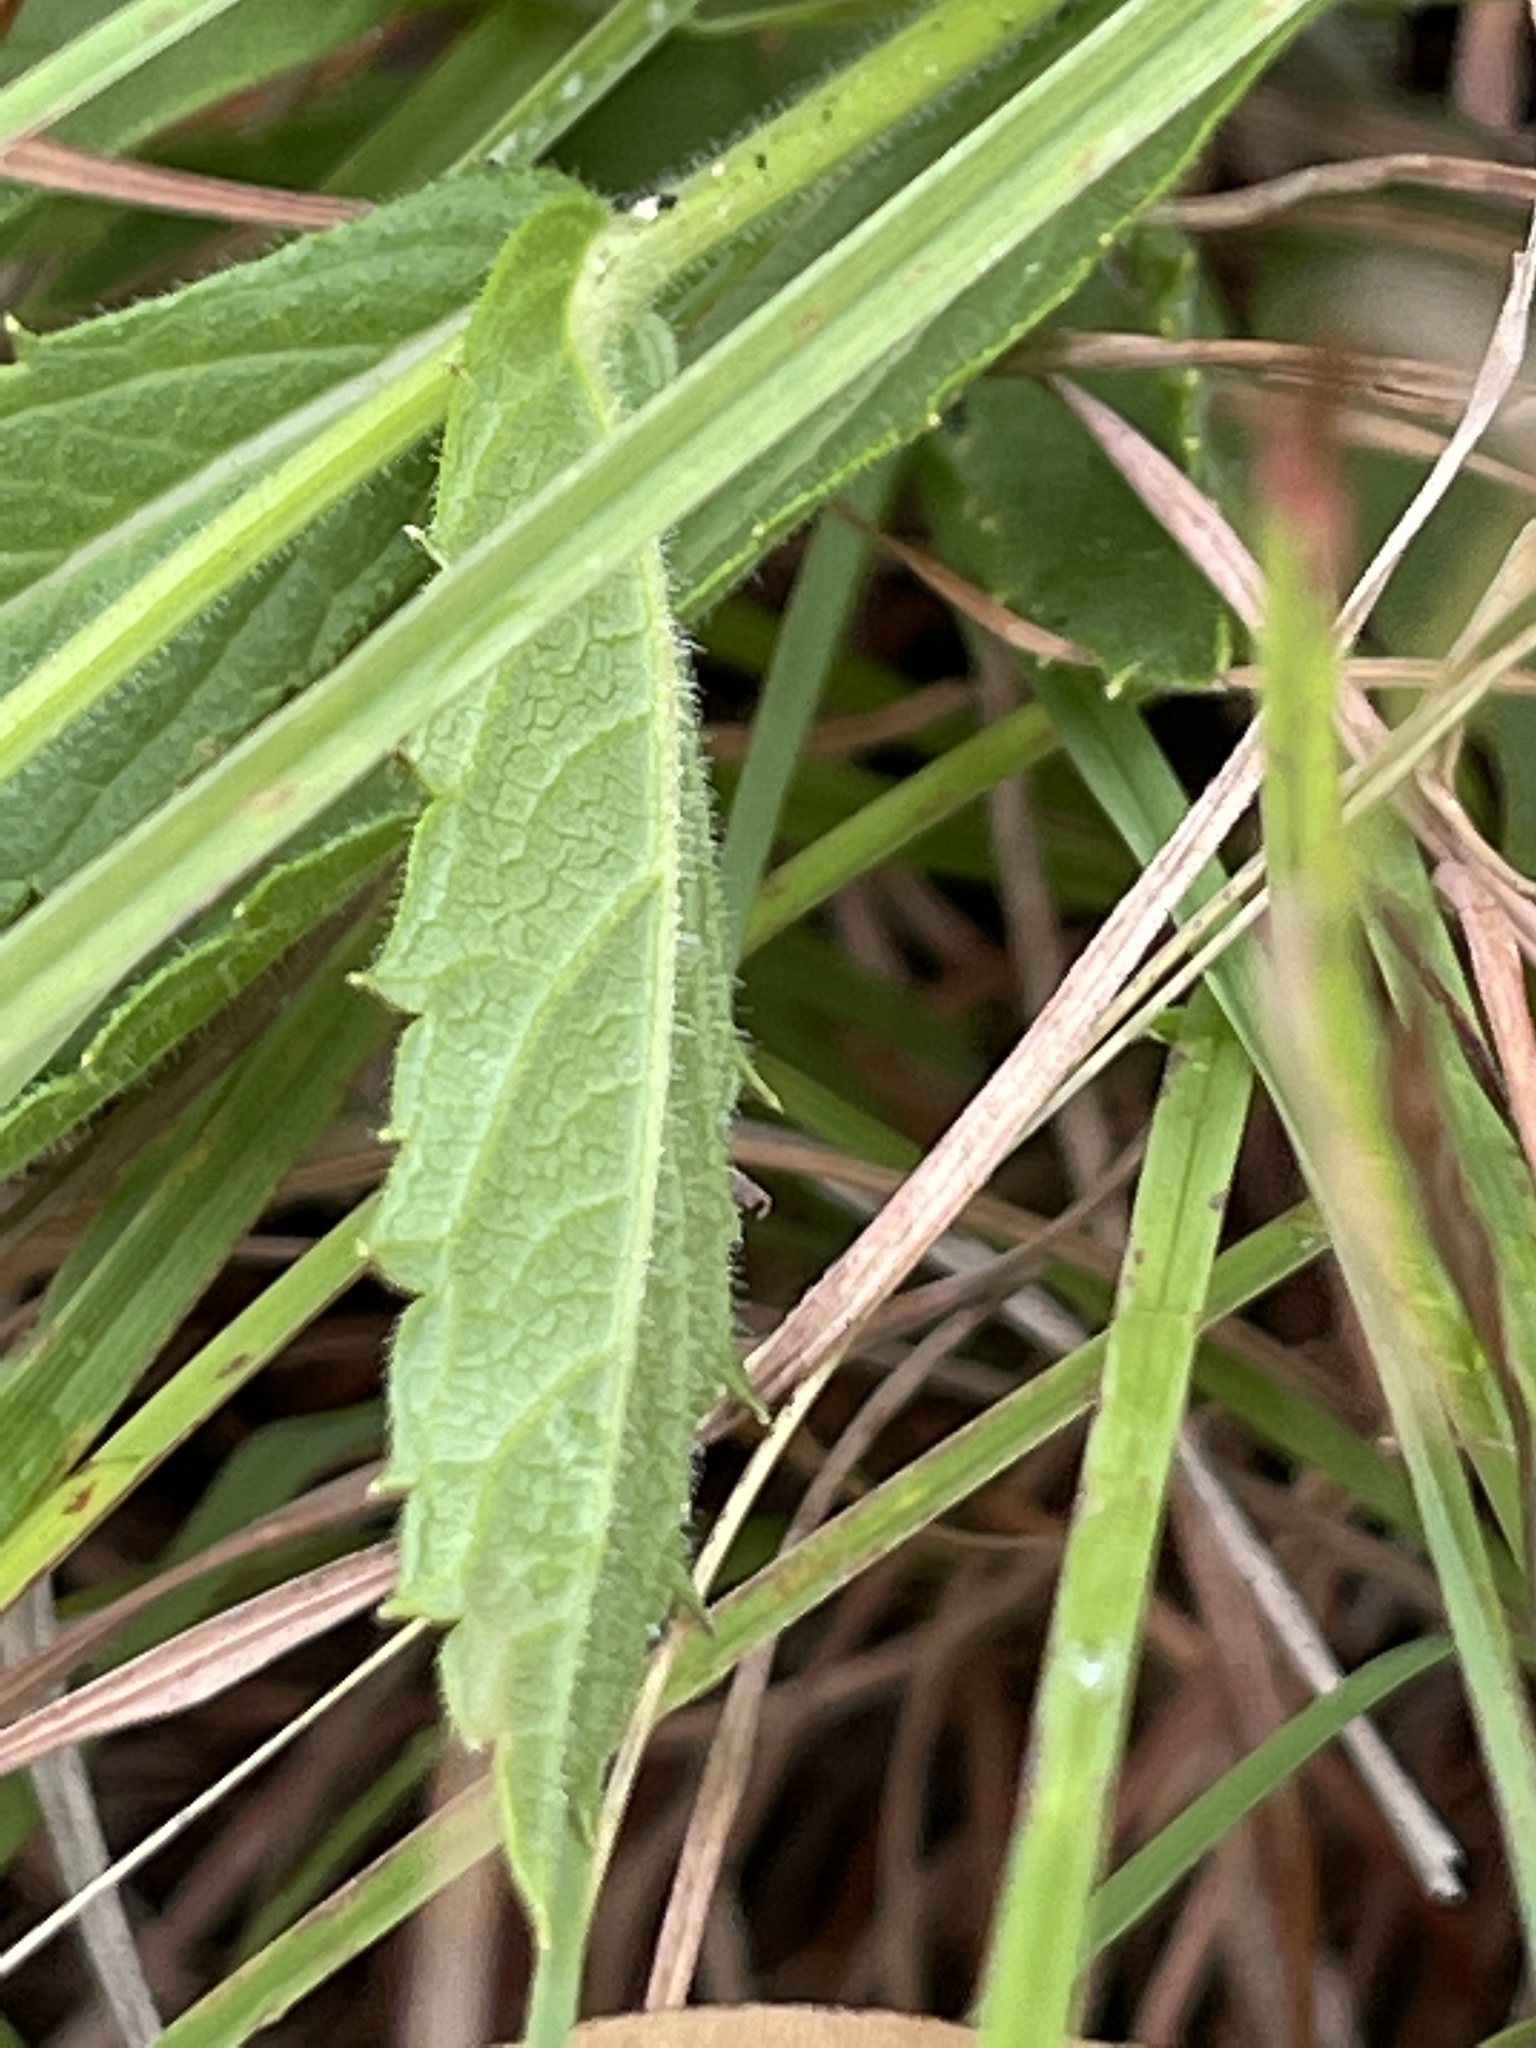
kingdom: Plantae
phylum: Tracheophyta
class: Magnoliopsida
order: Lamiales
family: Verbenaceae
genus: Verbena
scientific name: Verbena rigida
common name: Slender vervain
